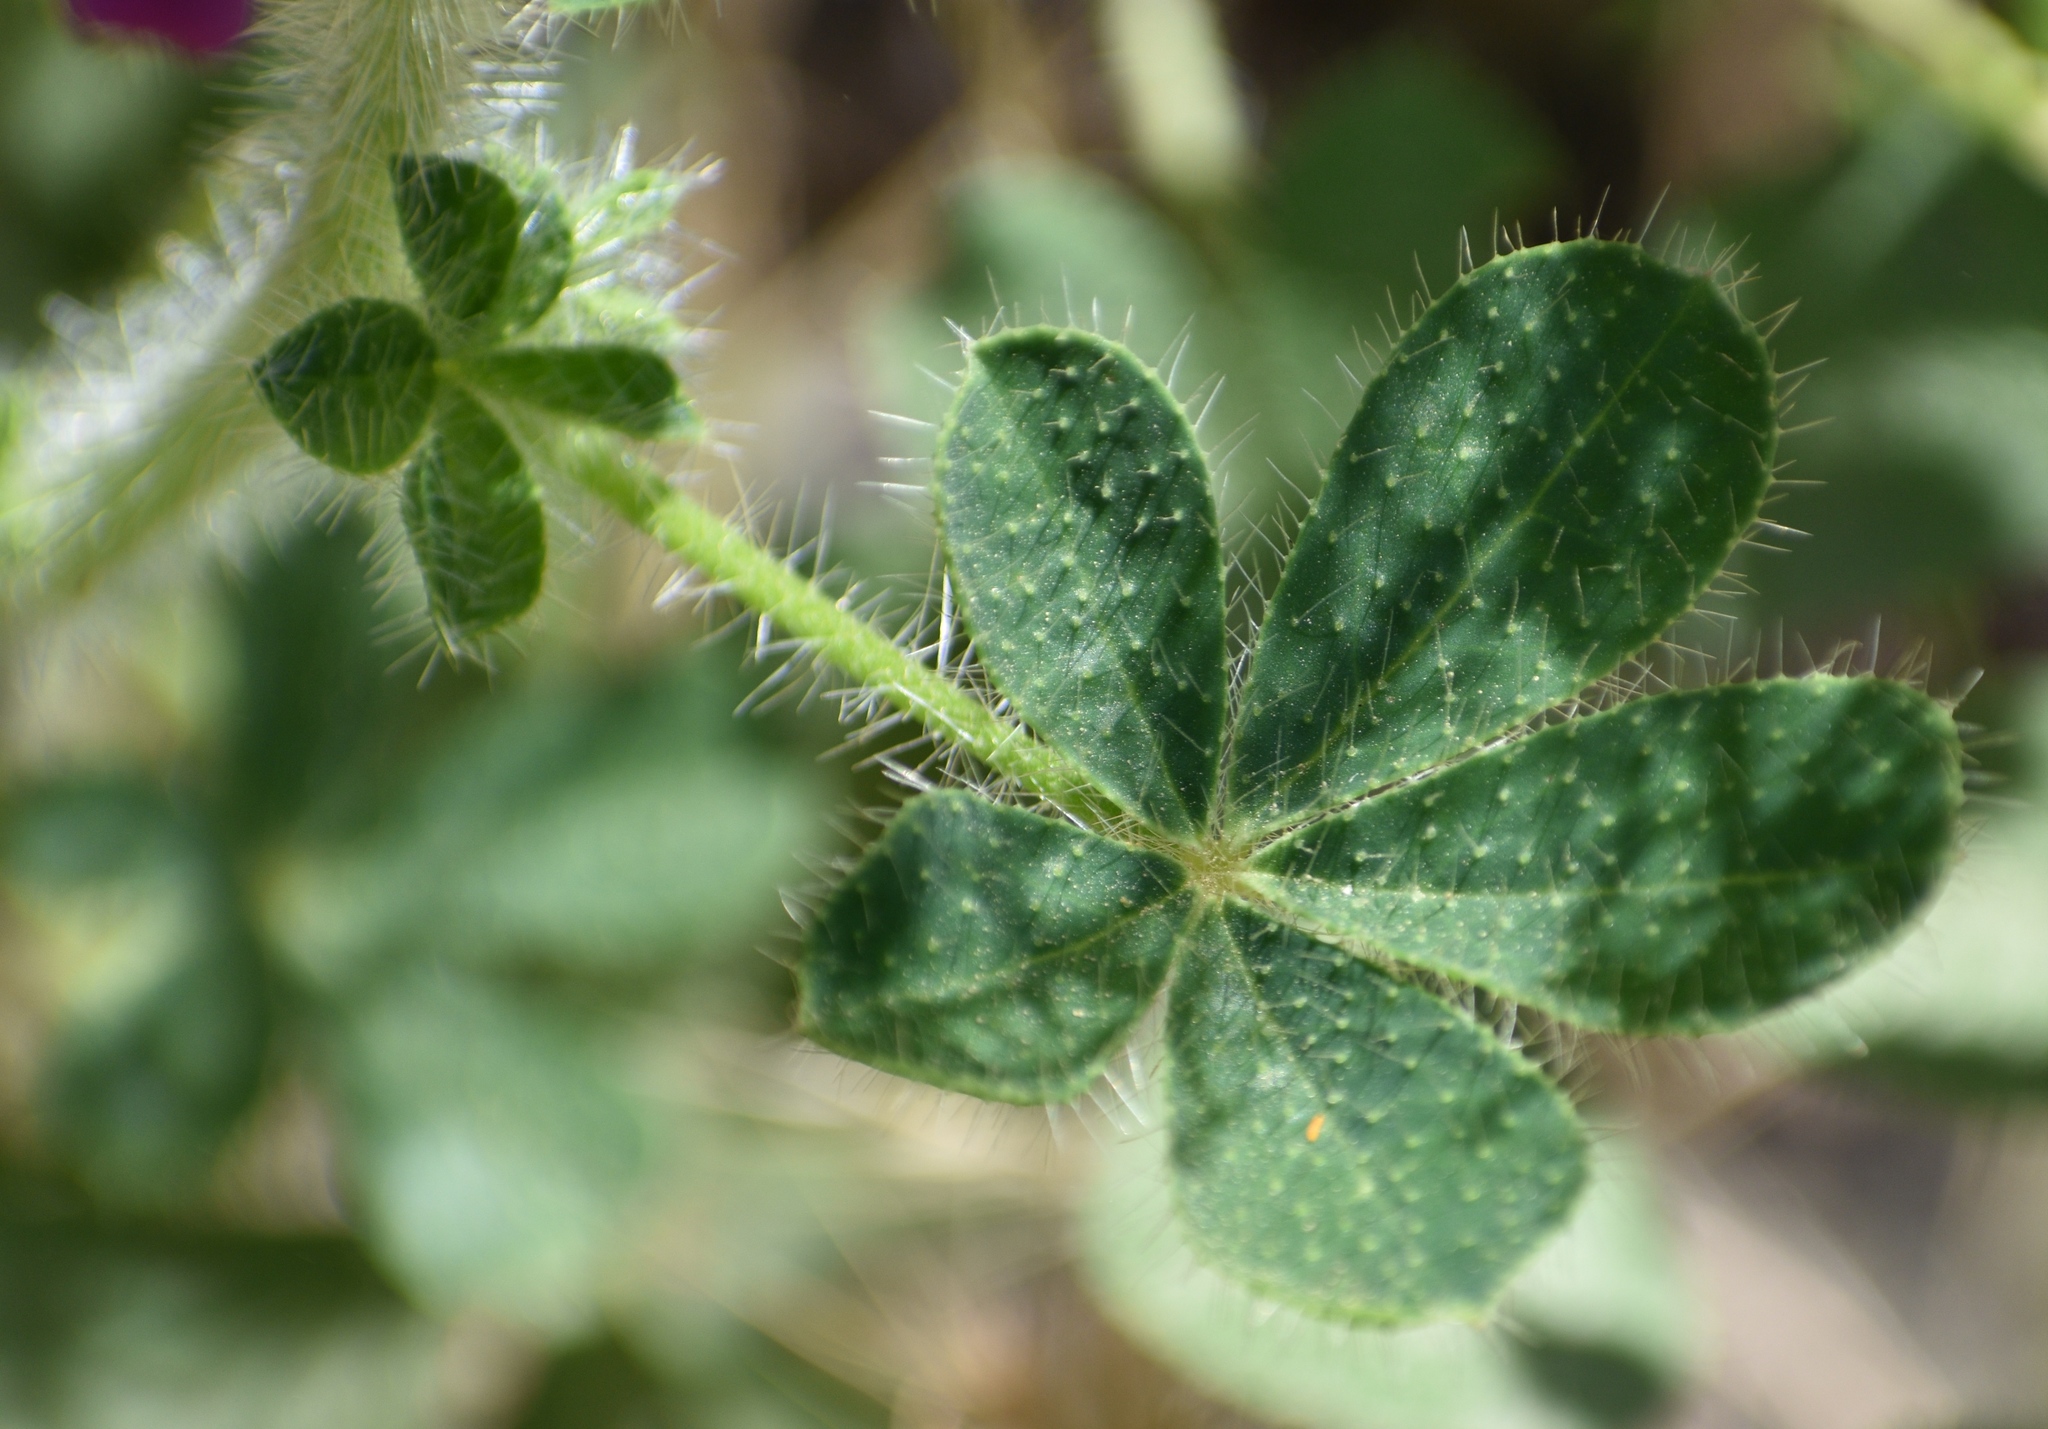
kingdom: Plantae
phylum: Tracheophyta
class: Magnoliopsida
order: Fabales
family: Fabaceae
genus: Lupinus
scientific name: Lupinus hirsutissimus
